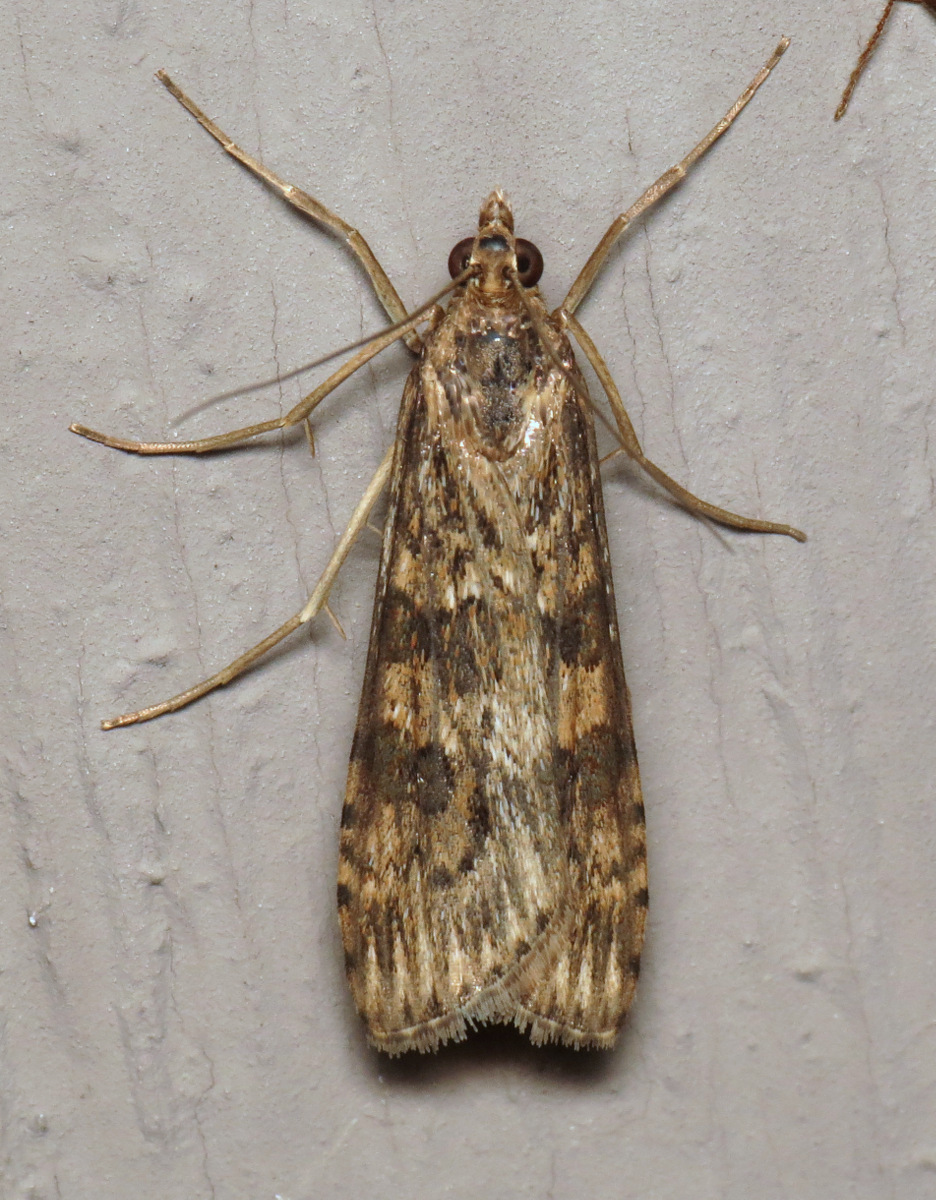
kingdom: Animalia
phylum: Arthropoda
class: Insecta
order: Lepidoptera
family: Crambidae
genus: Nomophila
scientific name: Nomophila nearctica
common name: American rush veneer
